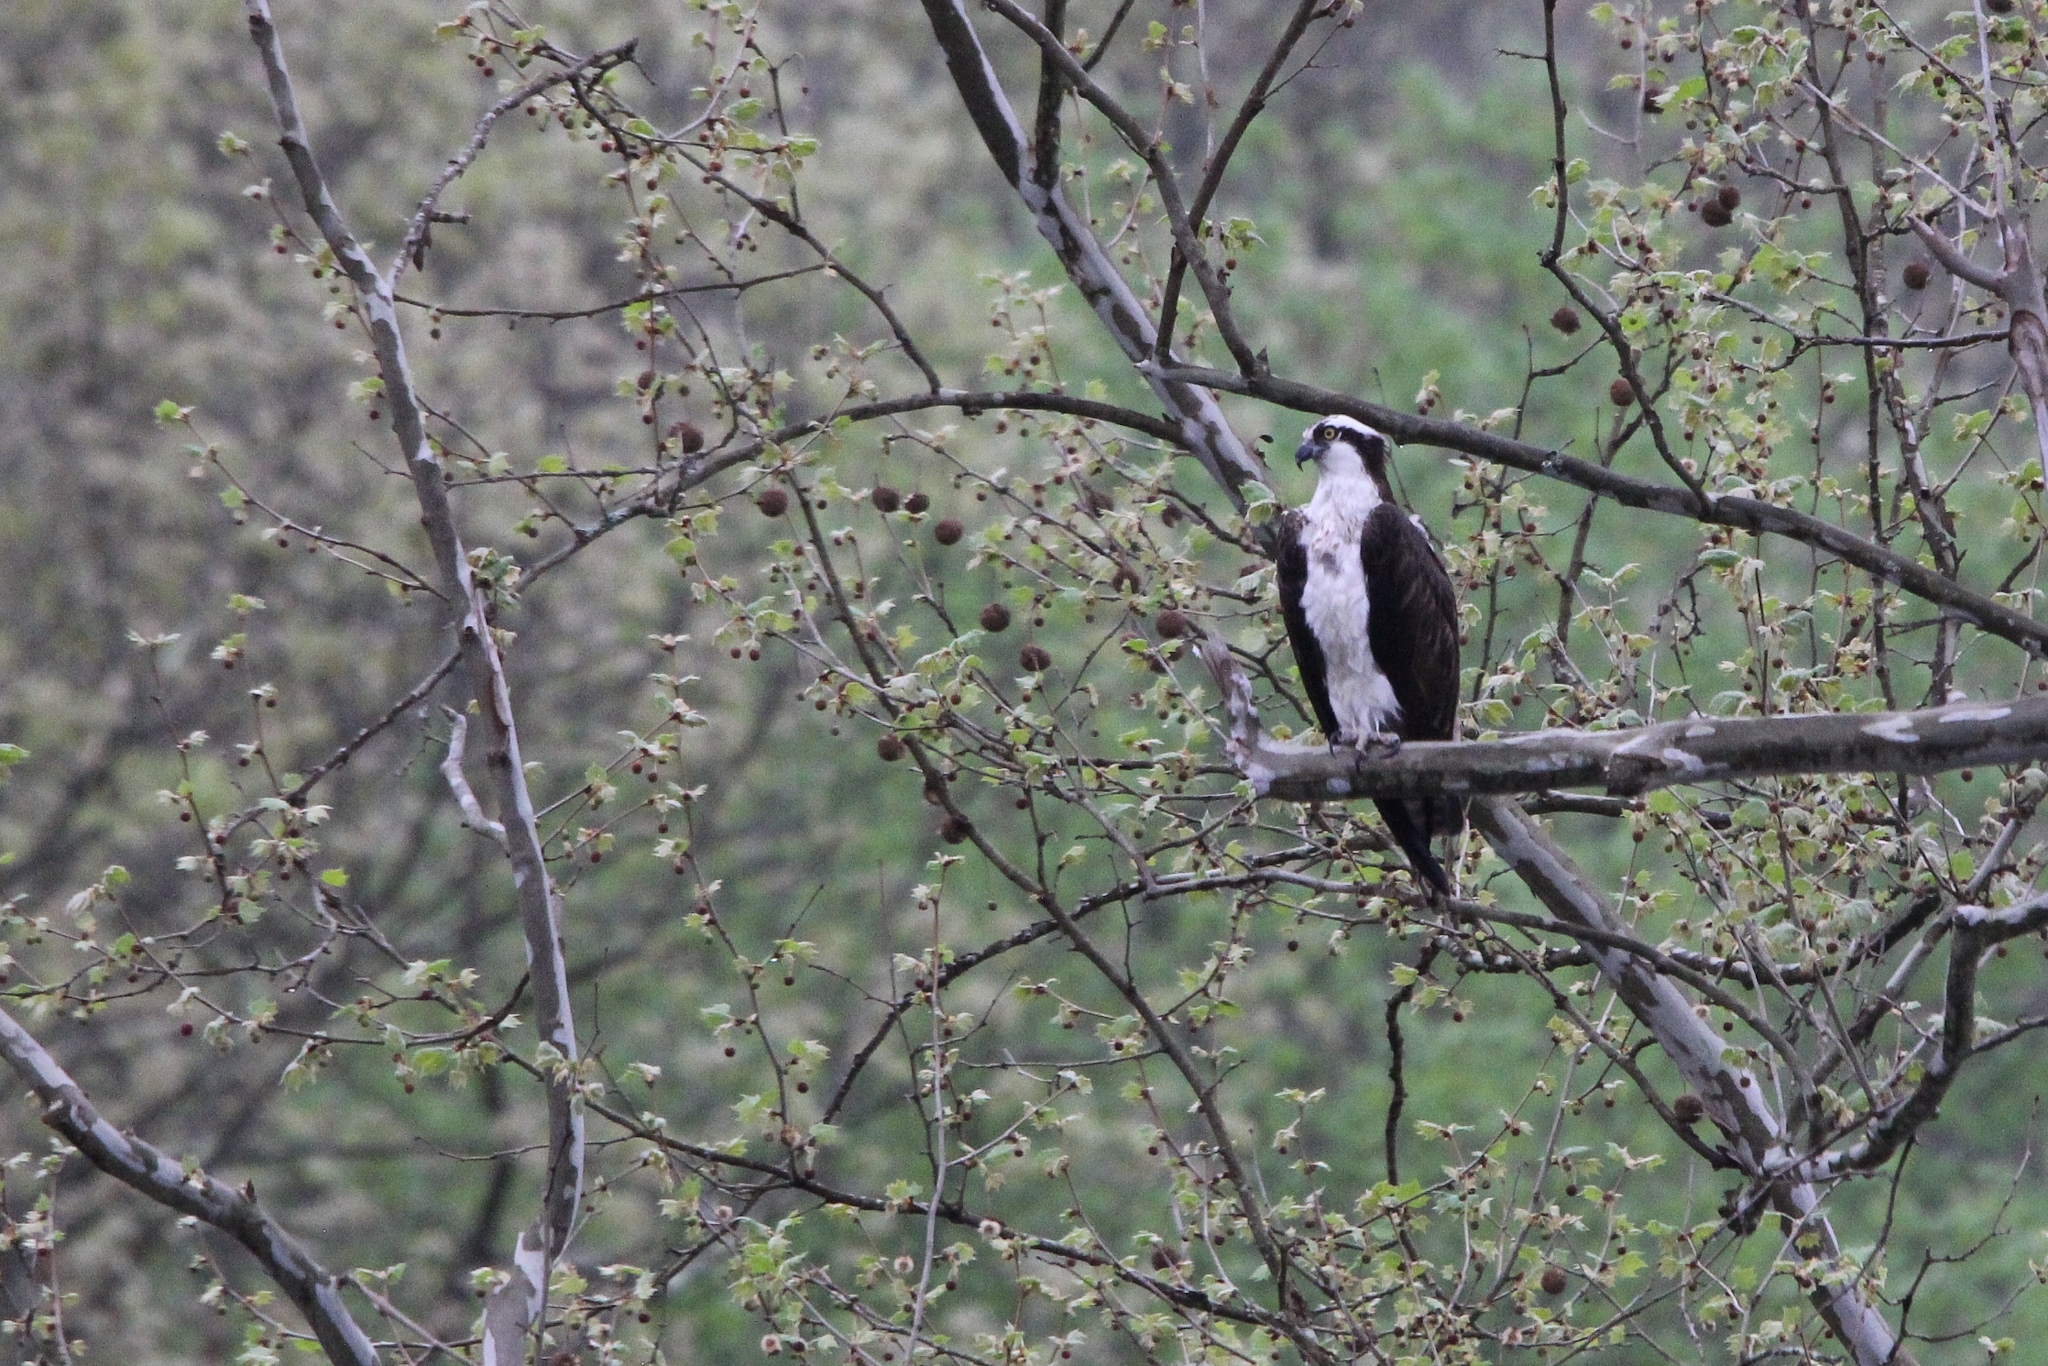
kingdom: Animalia
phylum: Chordata
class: Aves
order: Accipitriformes
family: Pandionidae
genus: Pandion
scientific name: Pandion haliaetus
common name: Osprey
